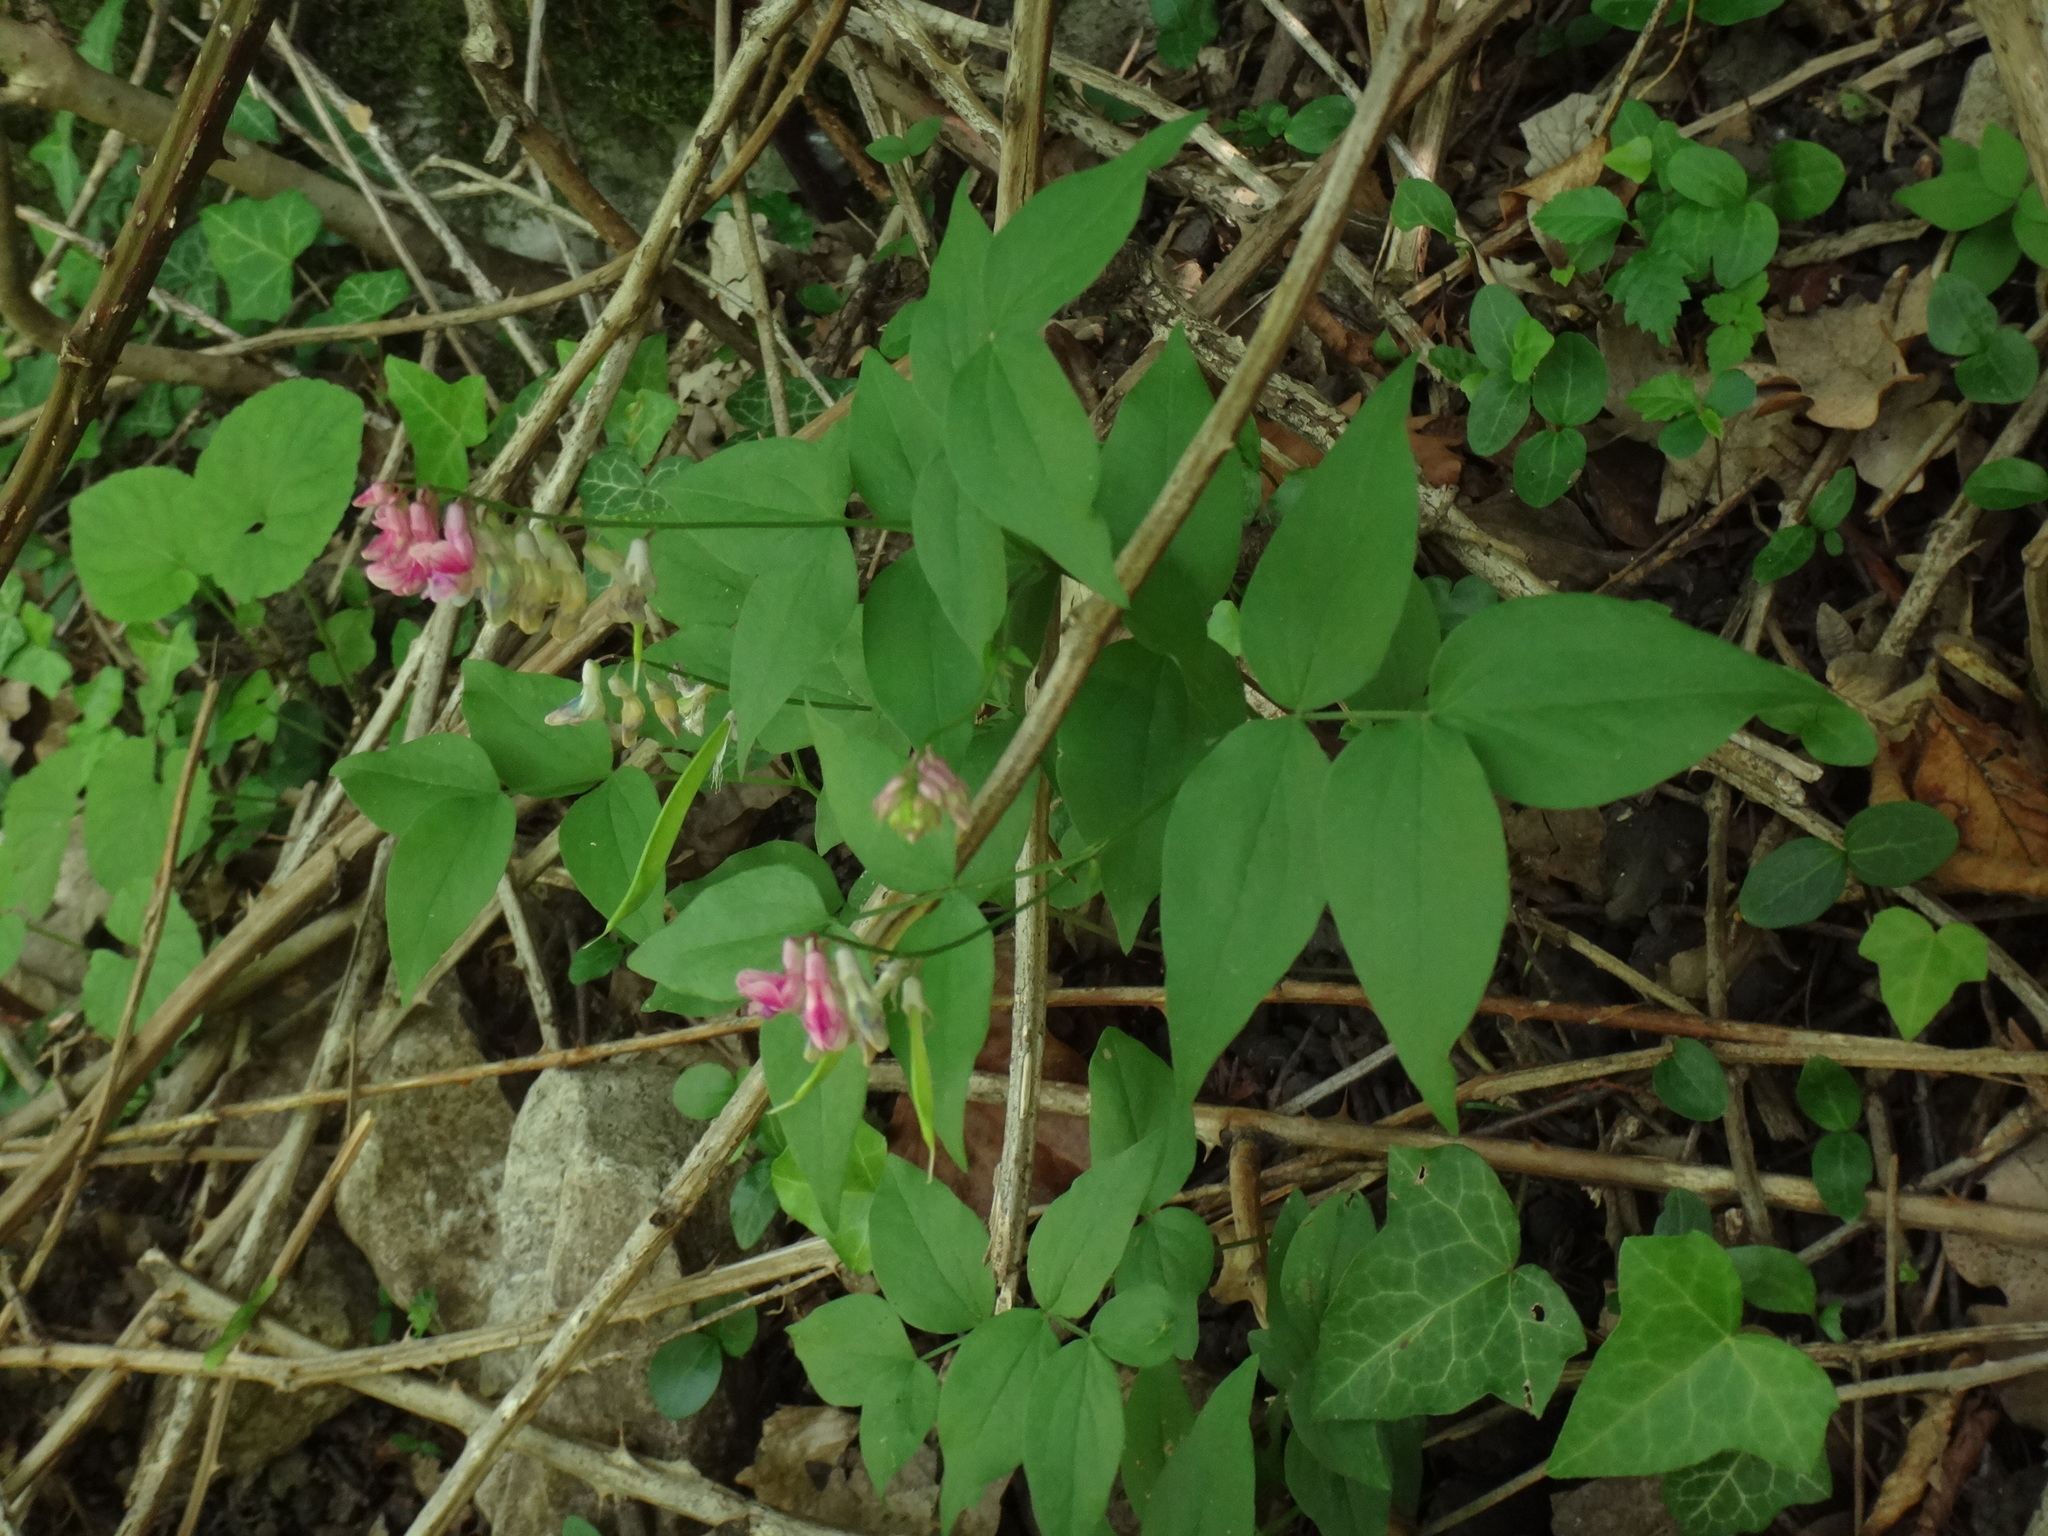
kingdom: Plantae
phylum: Tracheophyta
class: Magnoliopsida
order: Fabales
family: Fabaceae
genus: Lathyrus
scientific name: Lathyrus venetus
